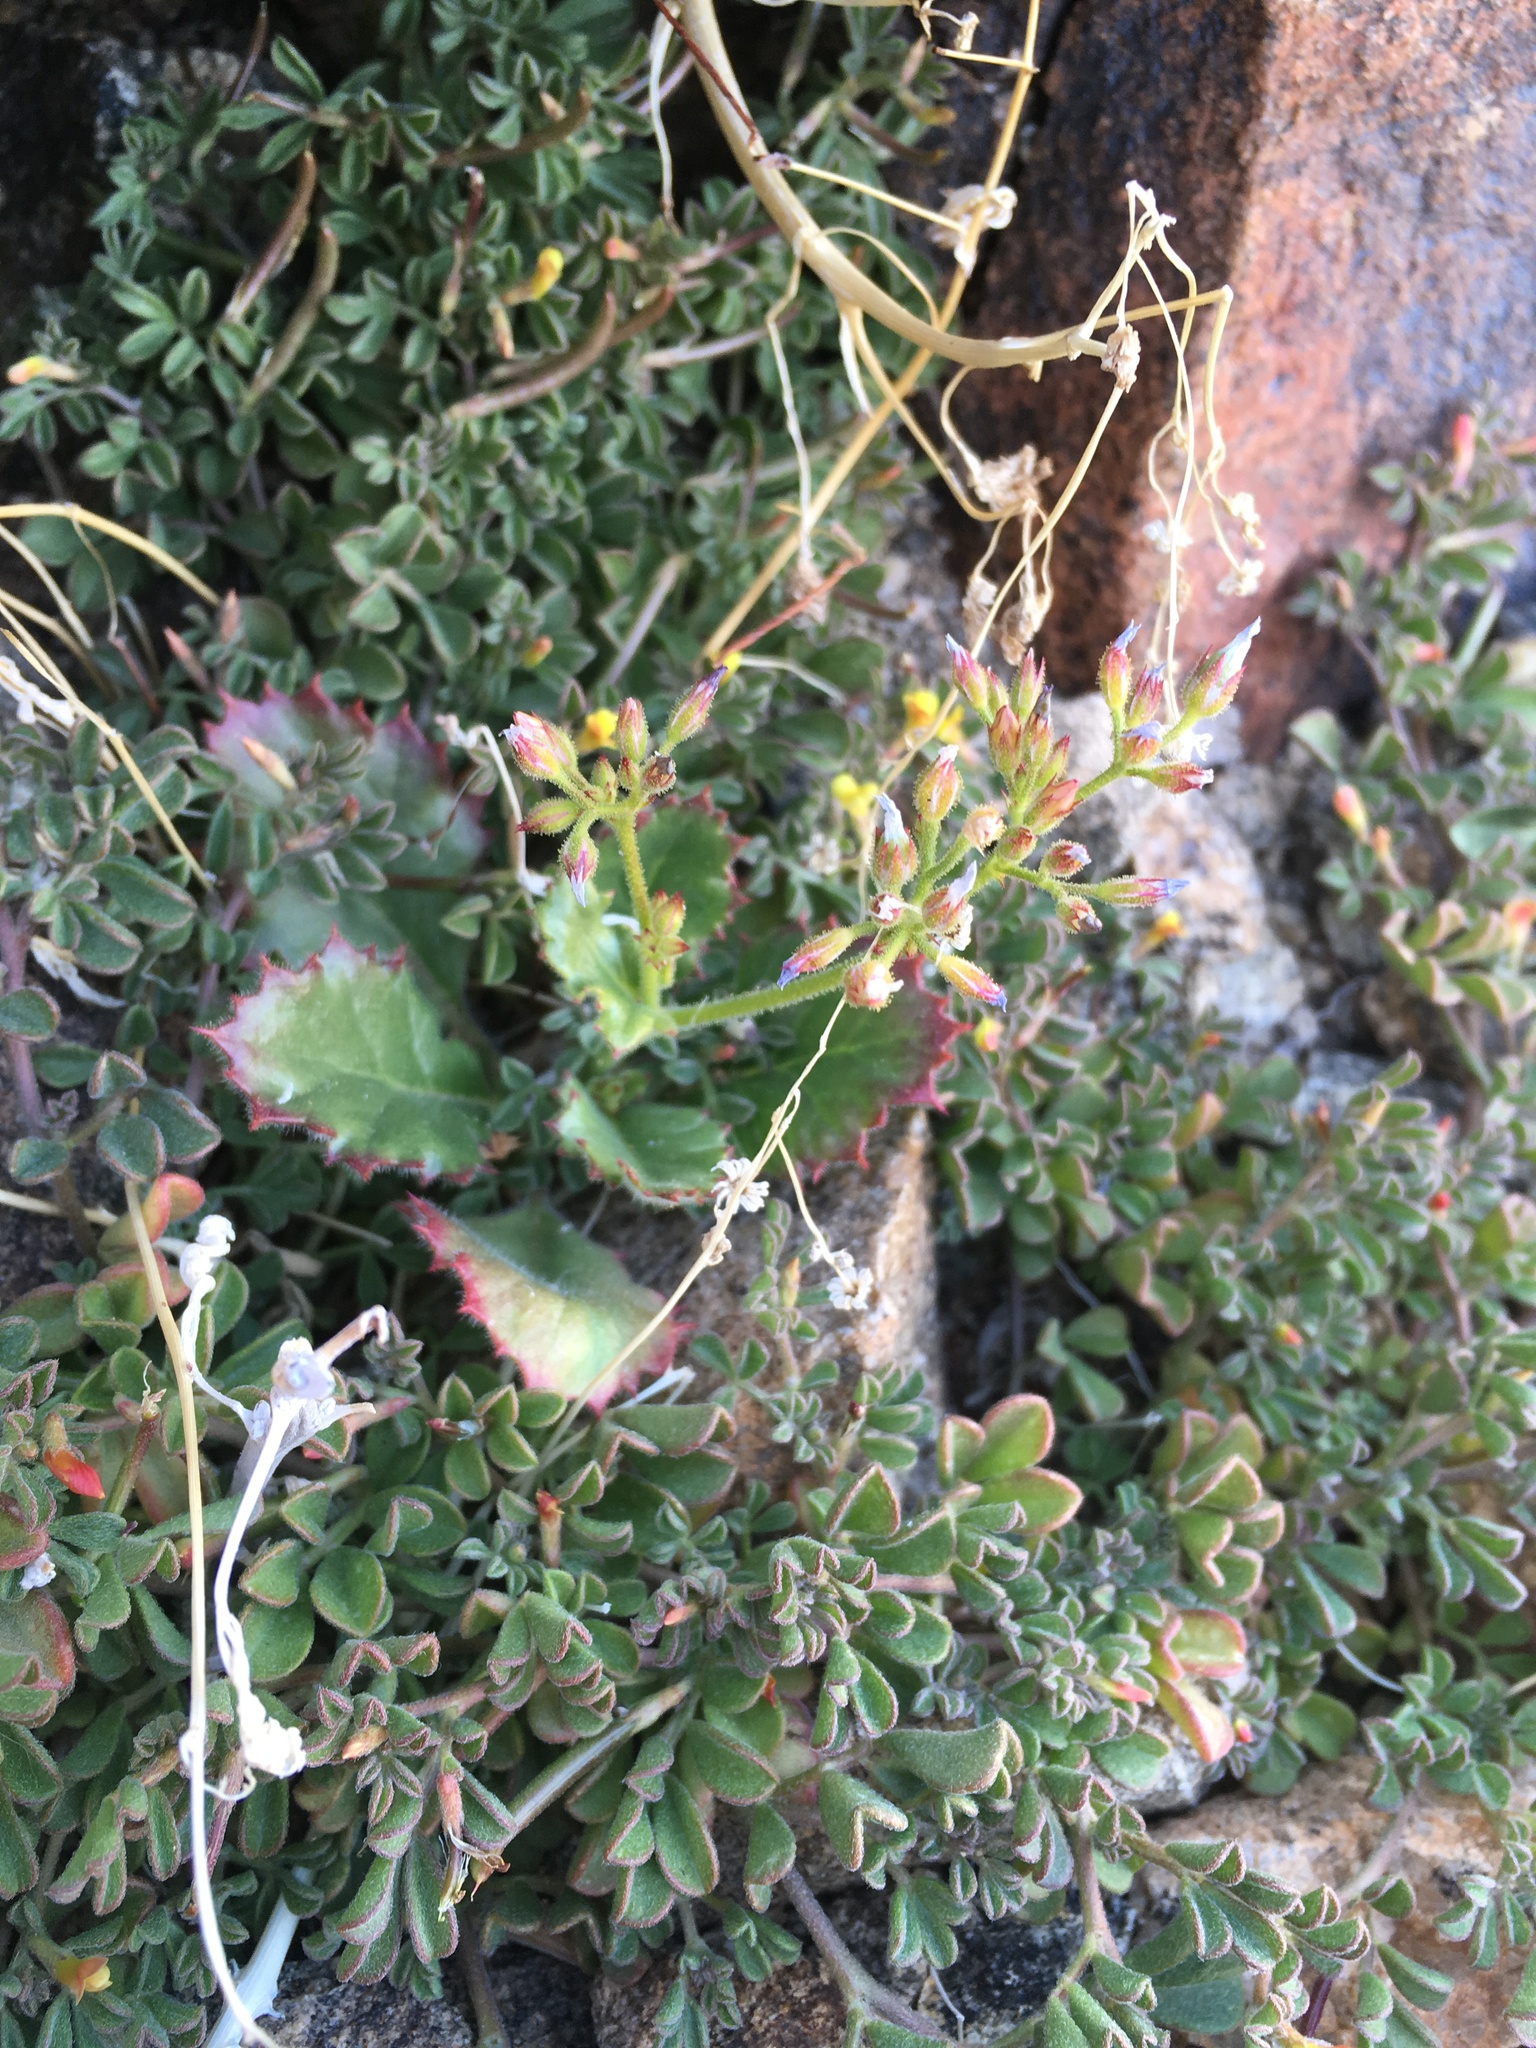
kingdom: Plantae
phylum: Tracheophyta
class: Magnoliopsida
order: Ericales
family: Polemoniaceae
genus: Aliciella
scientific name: Aliciella latifolia
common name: Broad-leaf gilia
